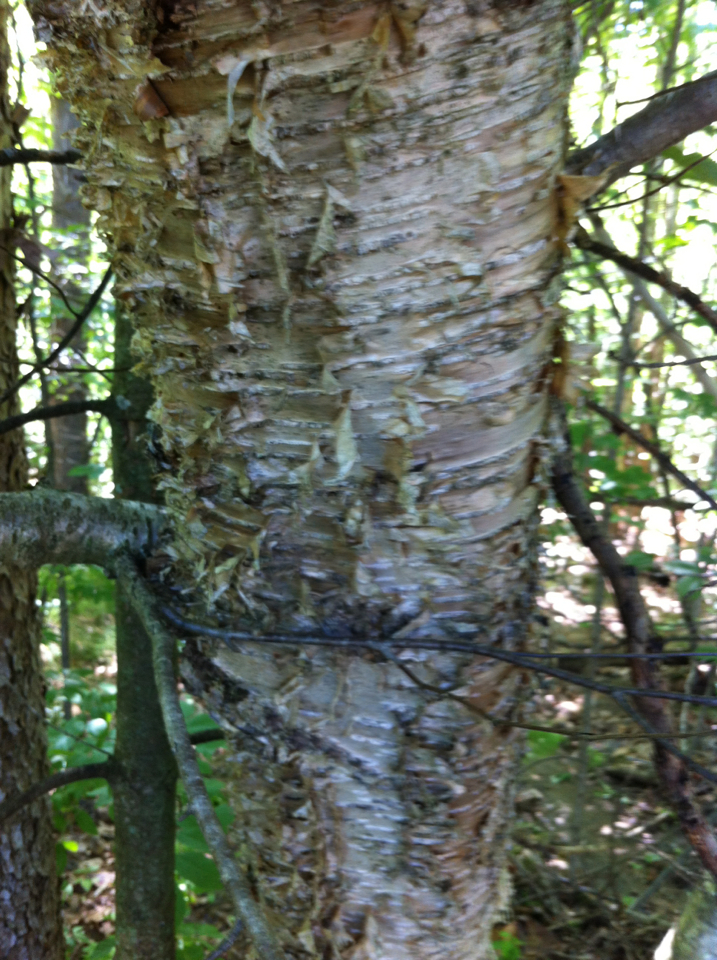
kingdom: Plantae
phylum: Tracheophyta
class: Magnoliopsida
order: Fagales
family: Betulaceae
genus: Betula
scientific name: Betula alleghaniensis
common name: Yellow birch
